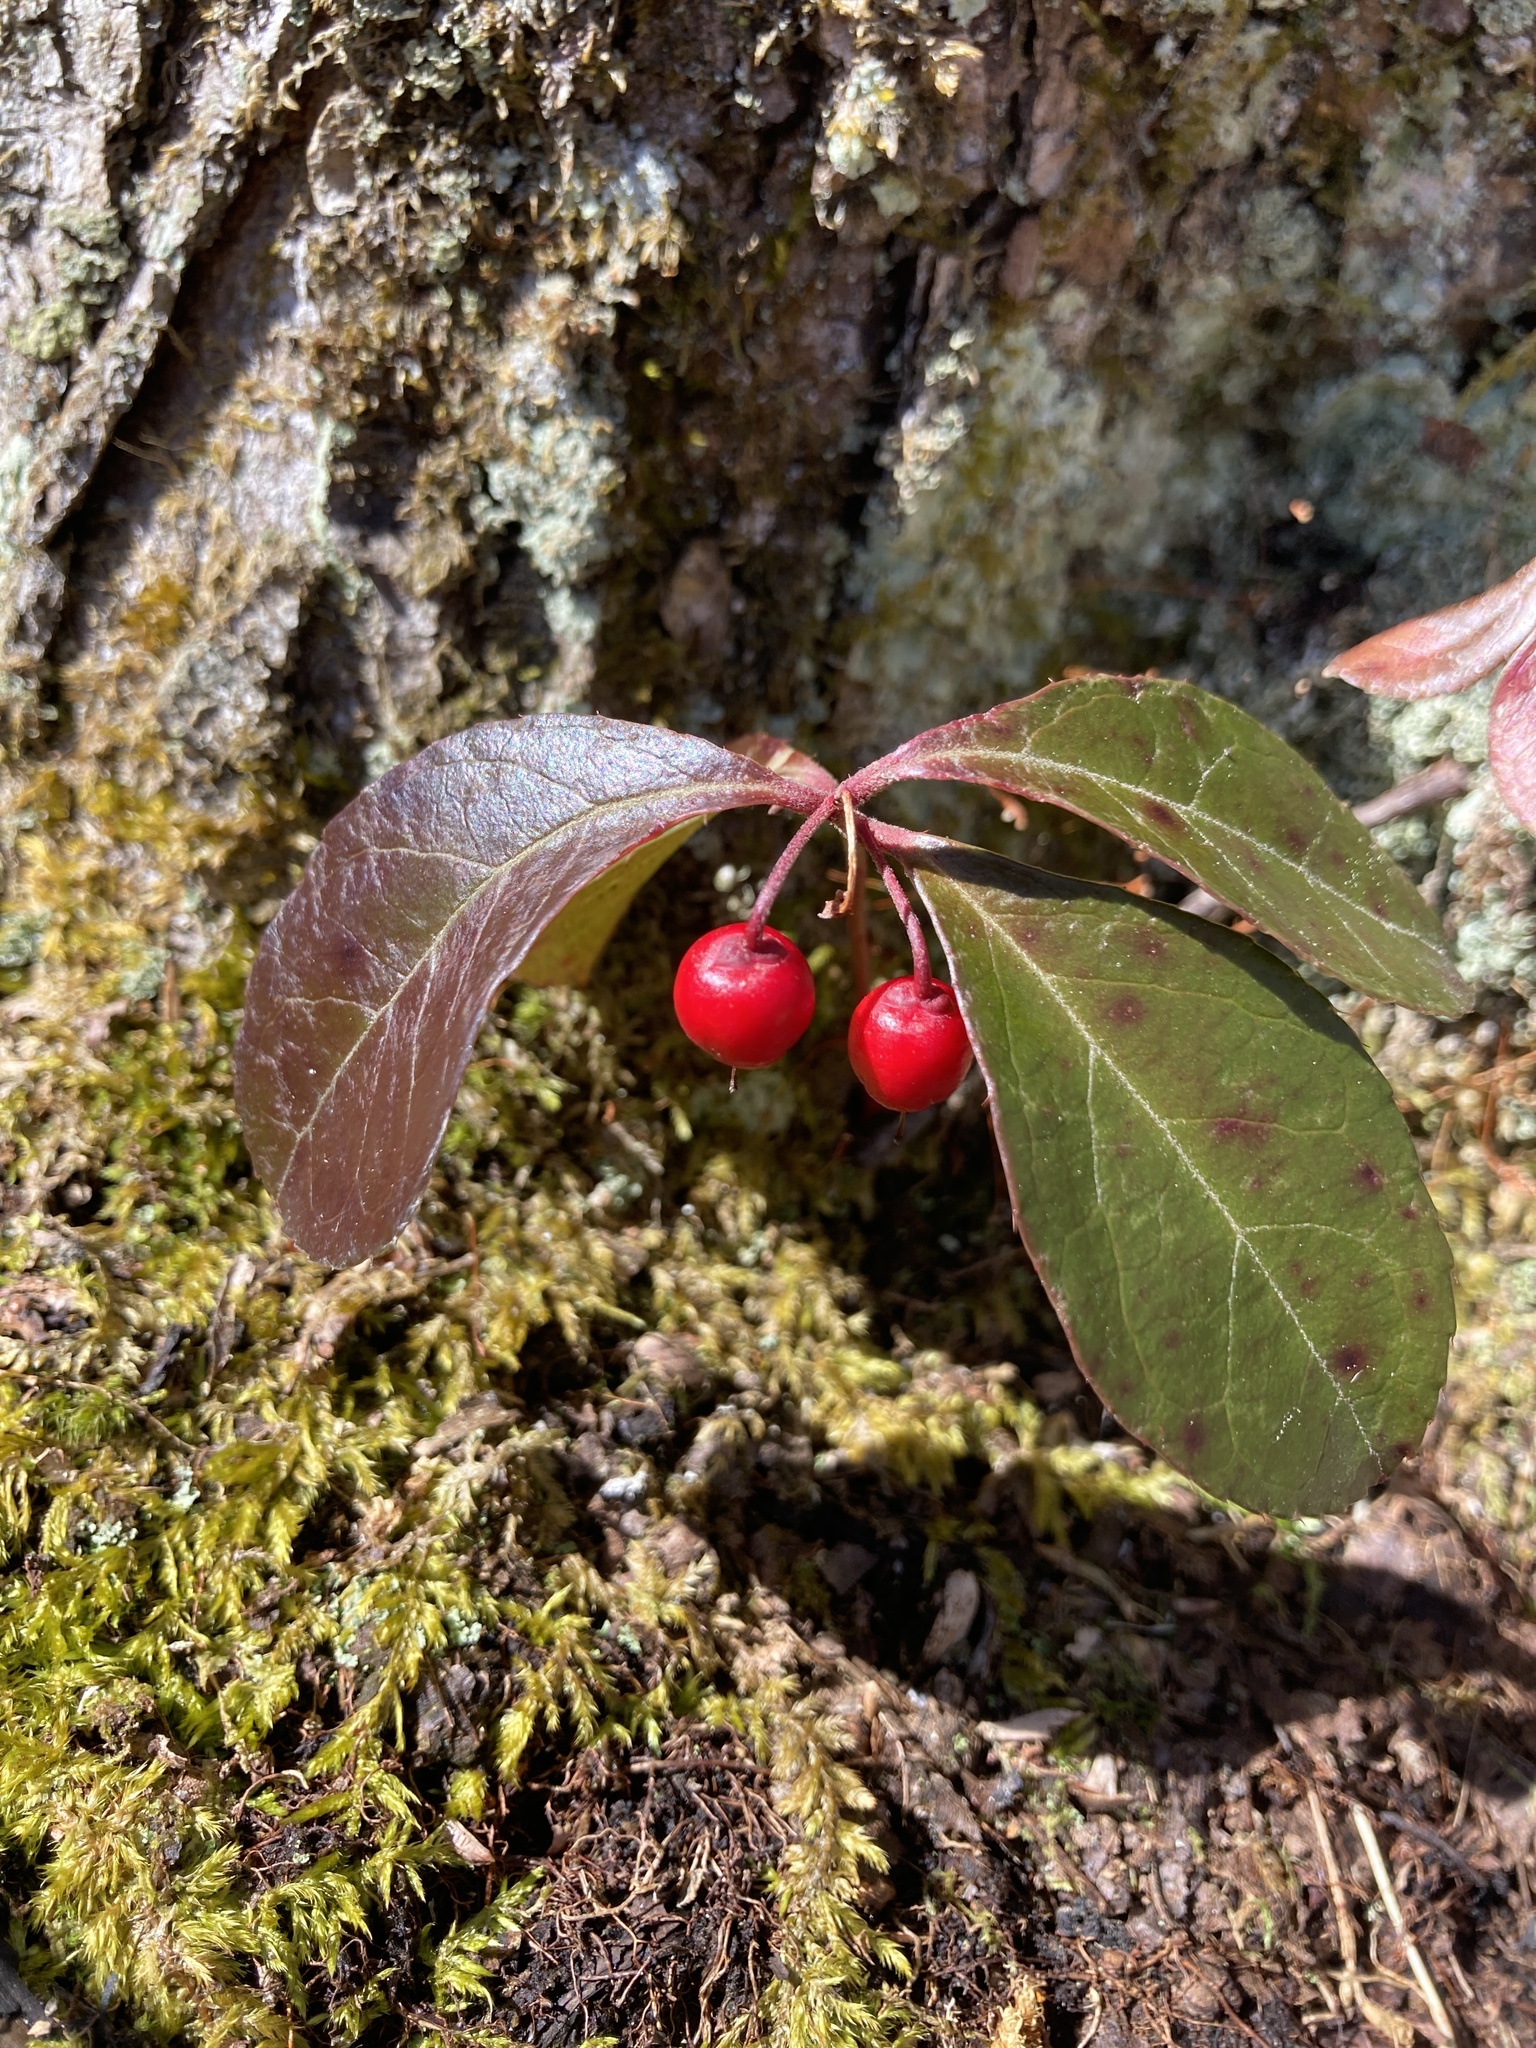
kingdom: Plantae
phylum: Tracheophyta
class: Magnoliopsida
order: Ericales
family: Ericaceae
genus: Gaultheria
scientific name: Gaultheria procumbens
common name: Checkerberry
